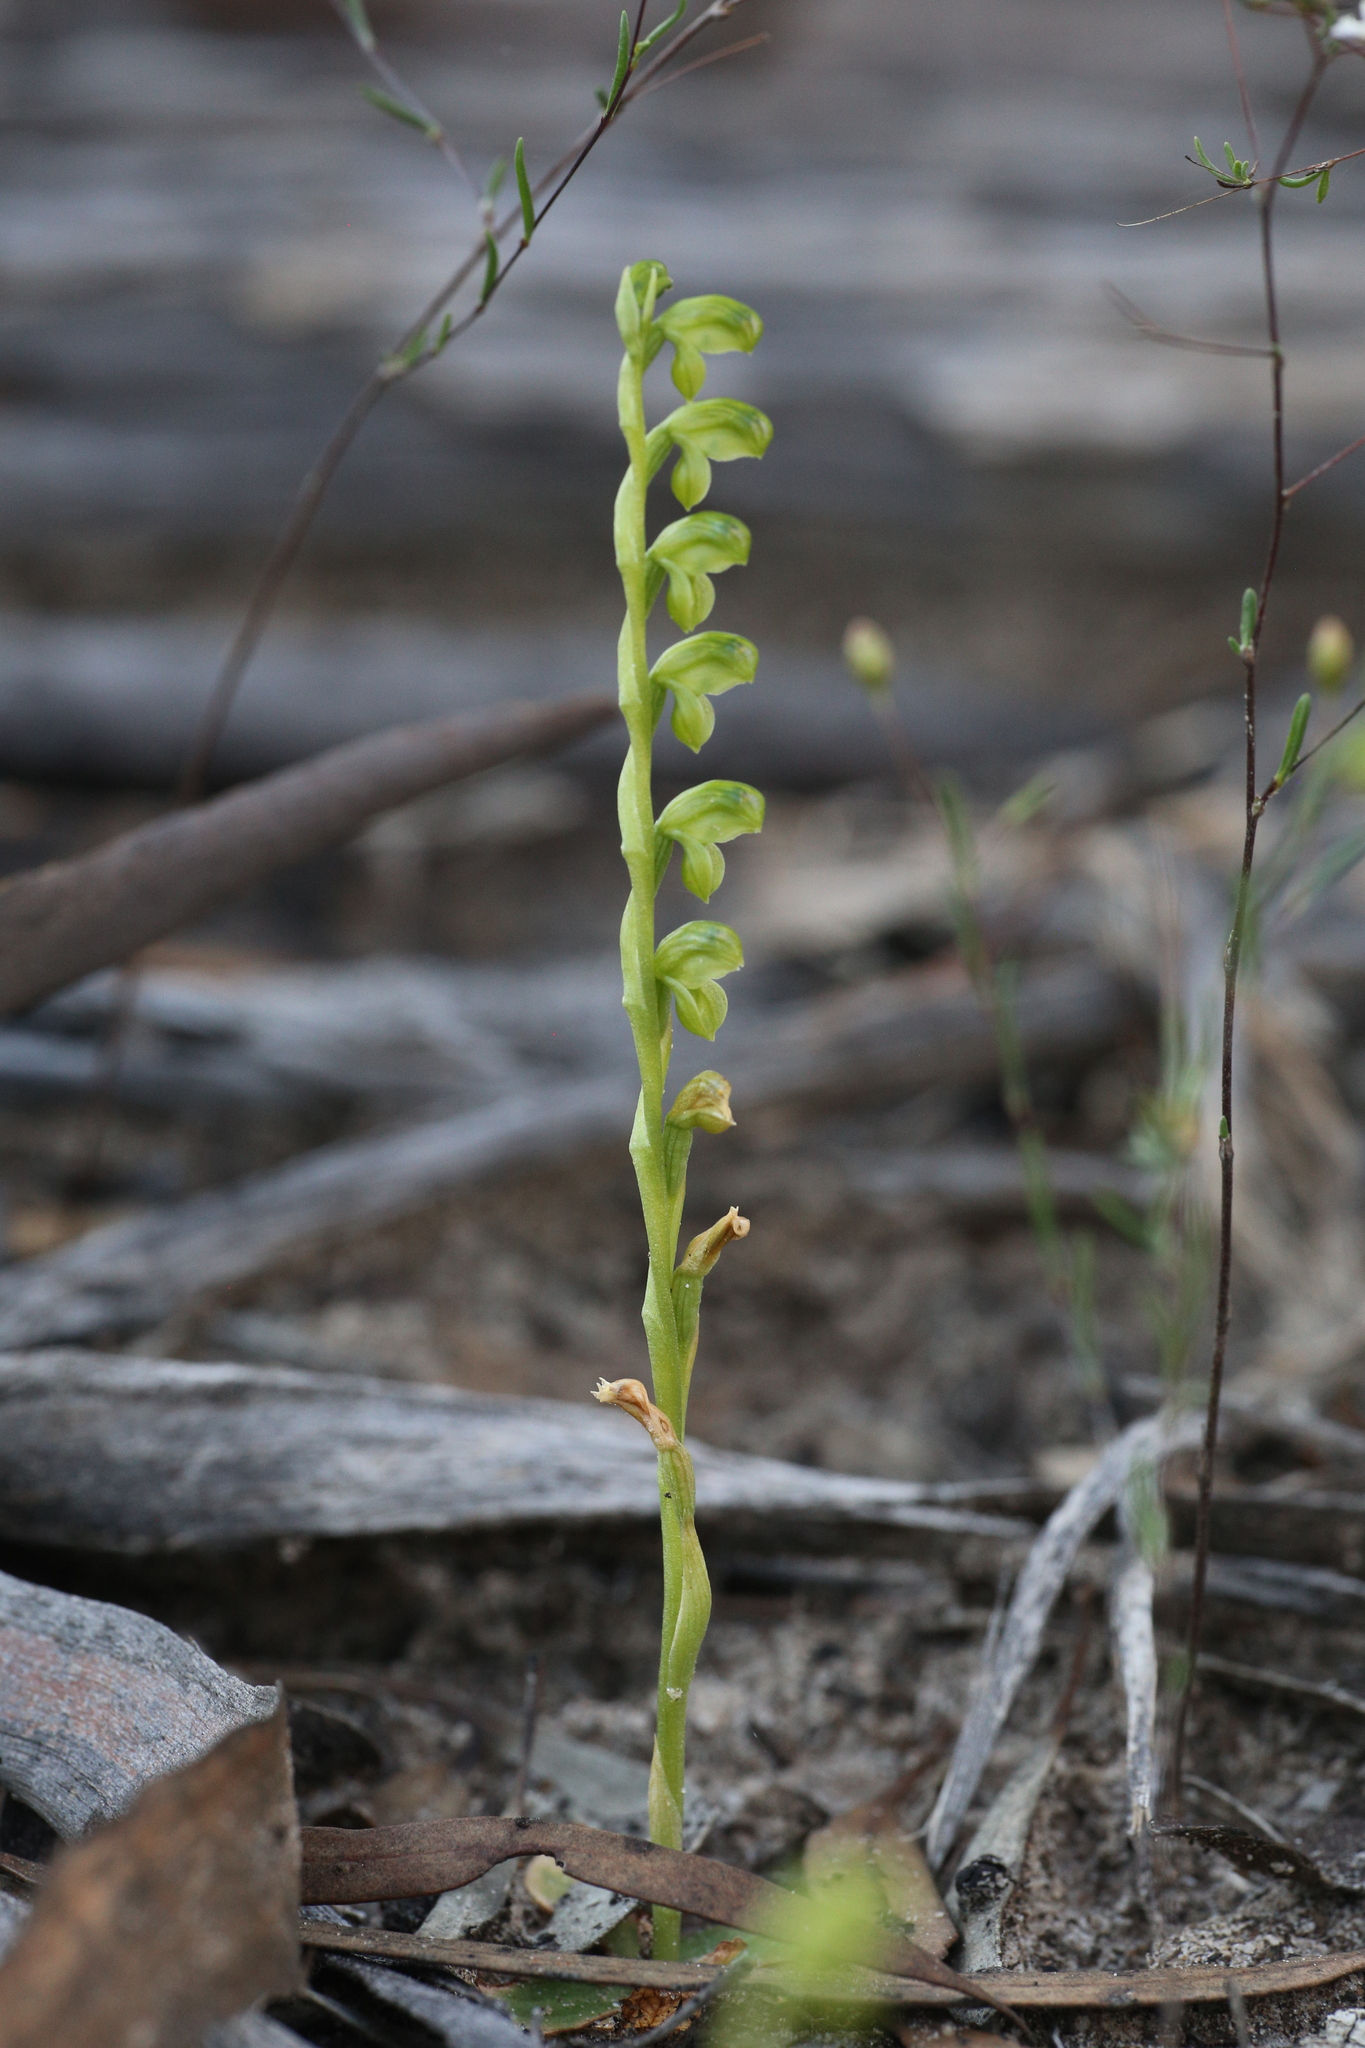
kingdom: Plantae
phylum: Tracheophyta
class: Liliopsida
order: Asparagales
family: Orchidaceae
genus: Pterostylis
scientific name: Pterostylis mutica
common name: Midget greenhood
